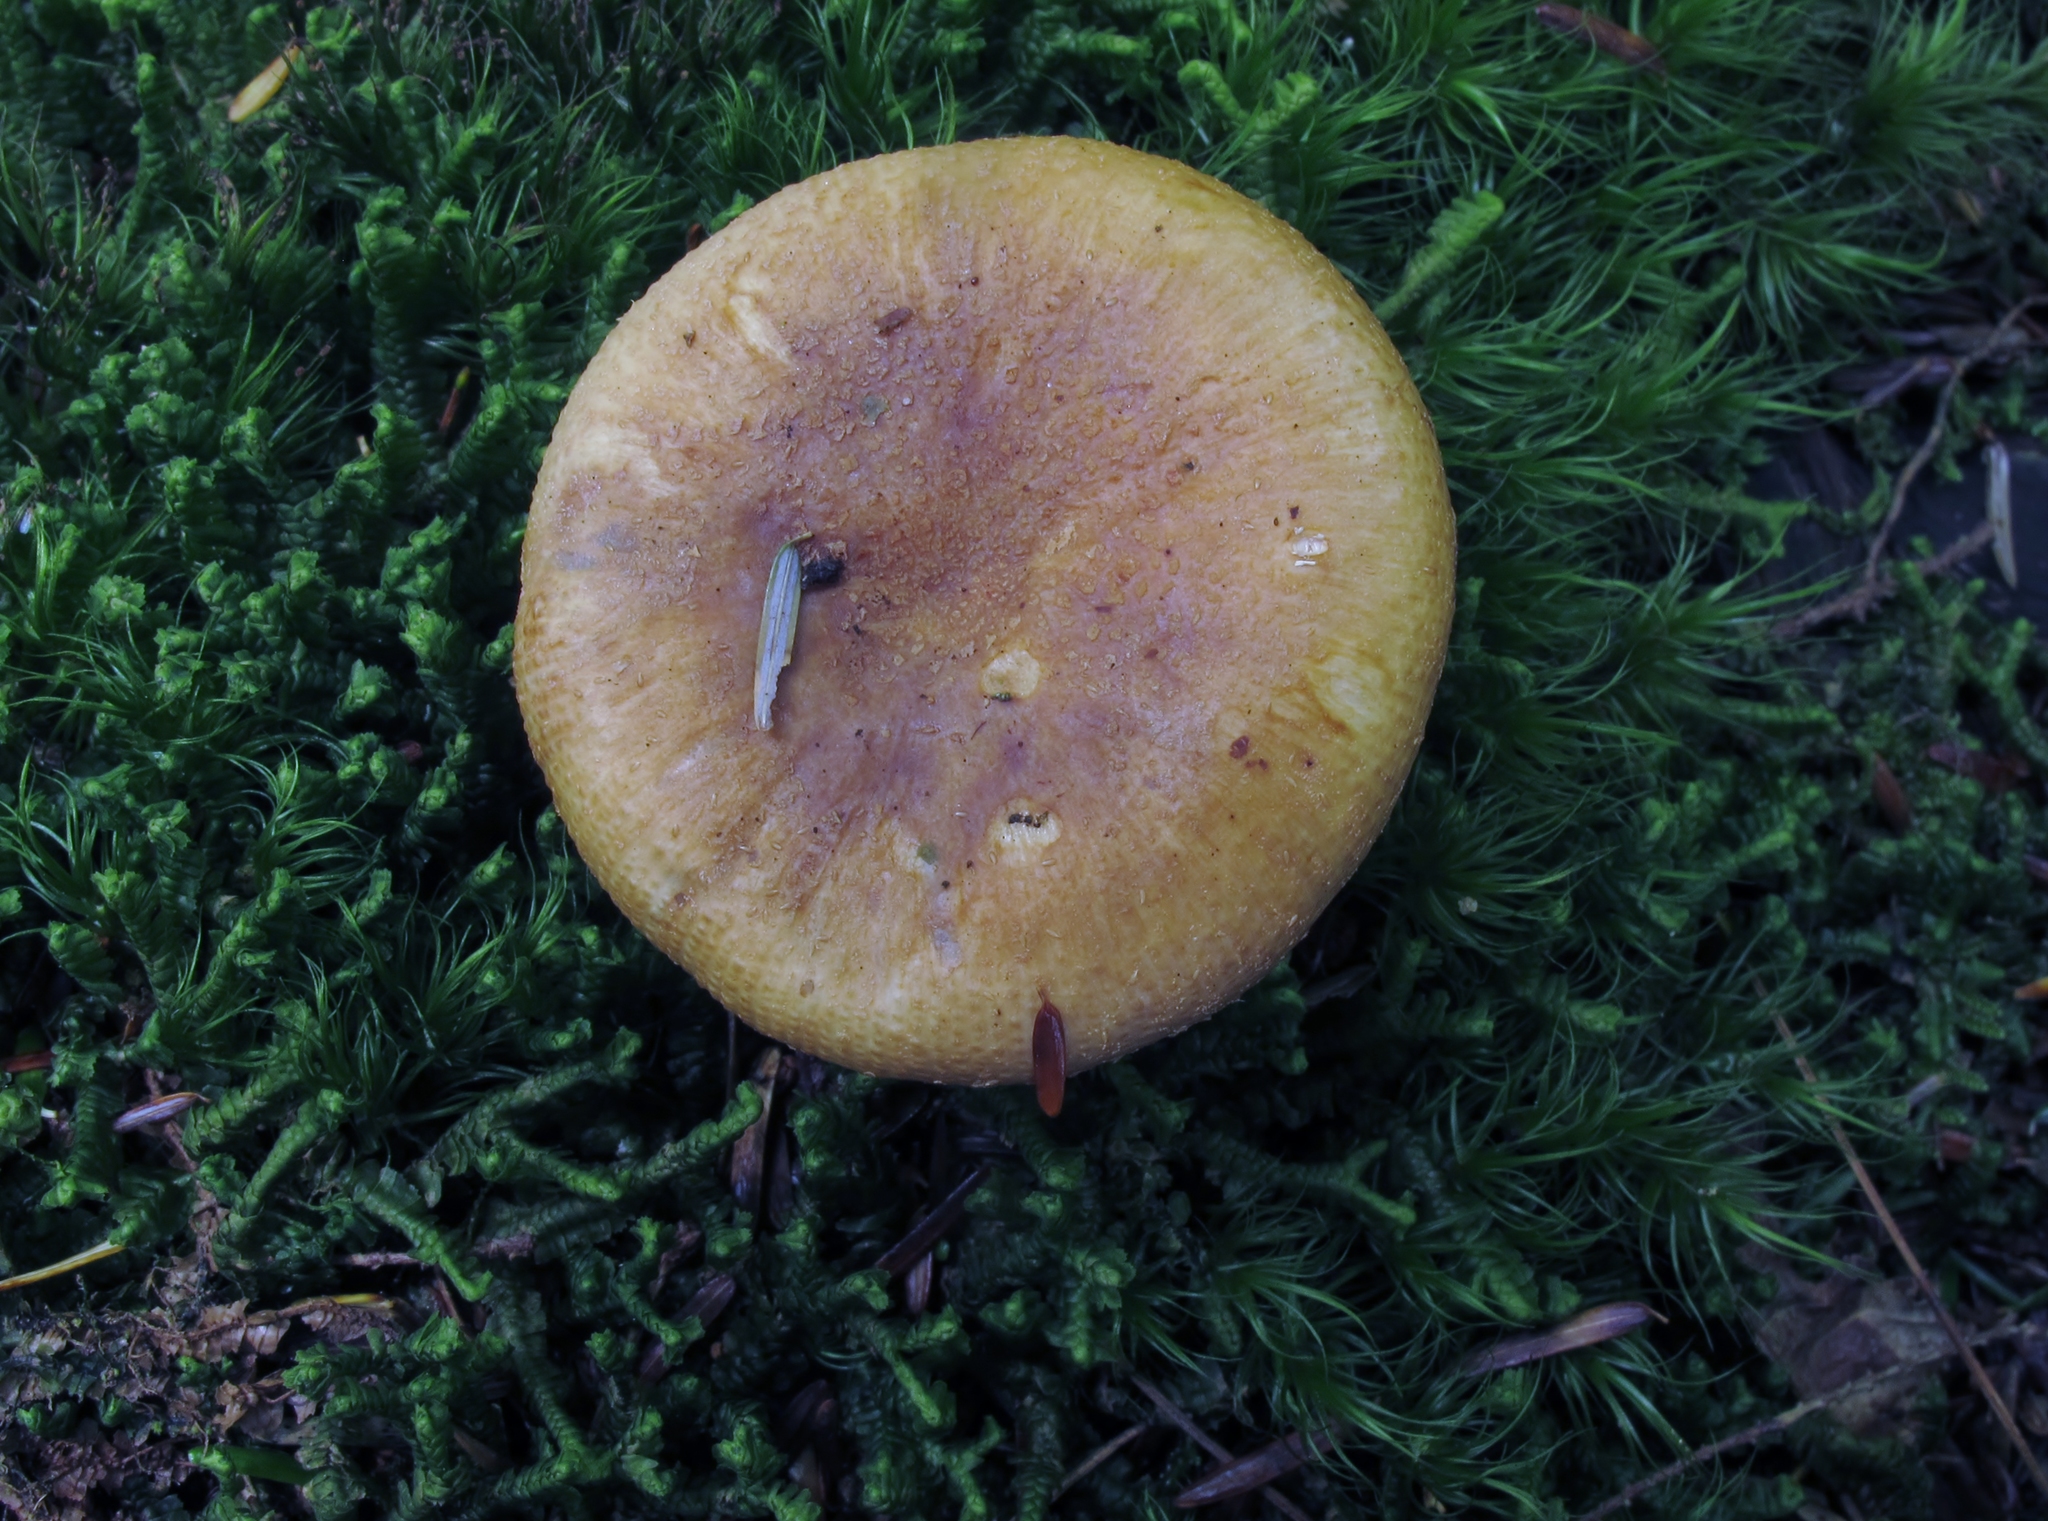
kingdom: Fungi
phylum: Basidiomycota
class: Agaricomycetes
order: Russulales
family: Russulaceae
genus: Russula
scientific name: Russula granulata
